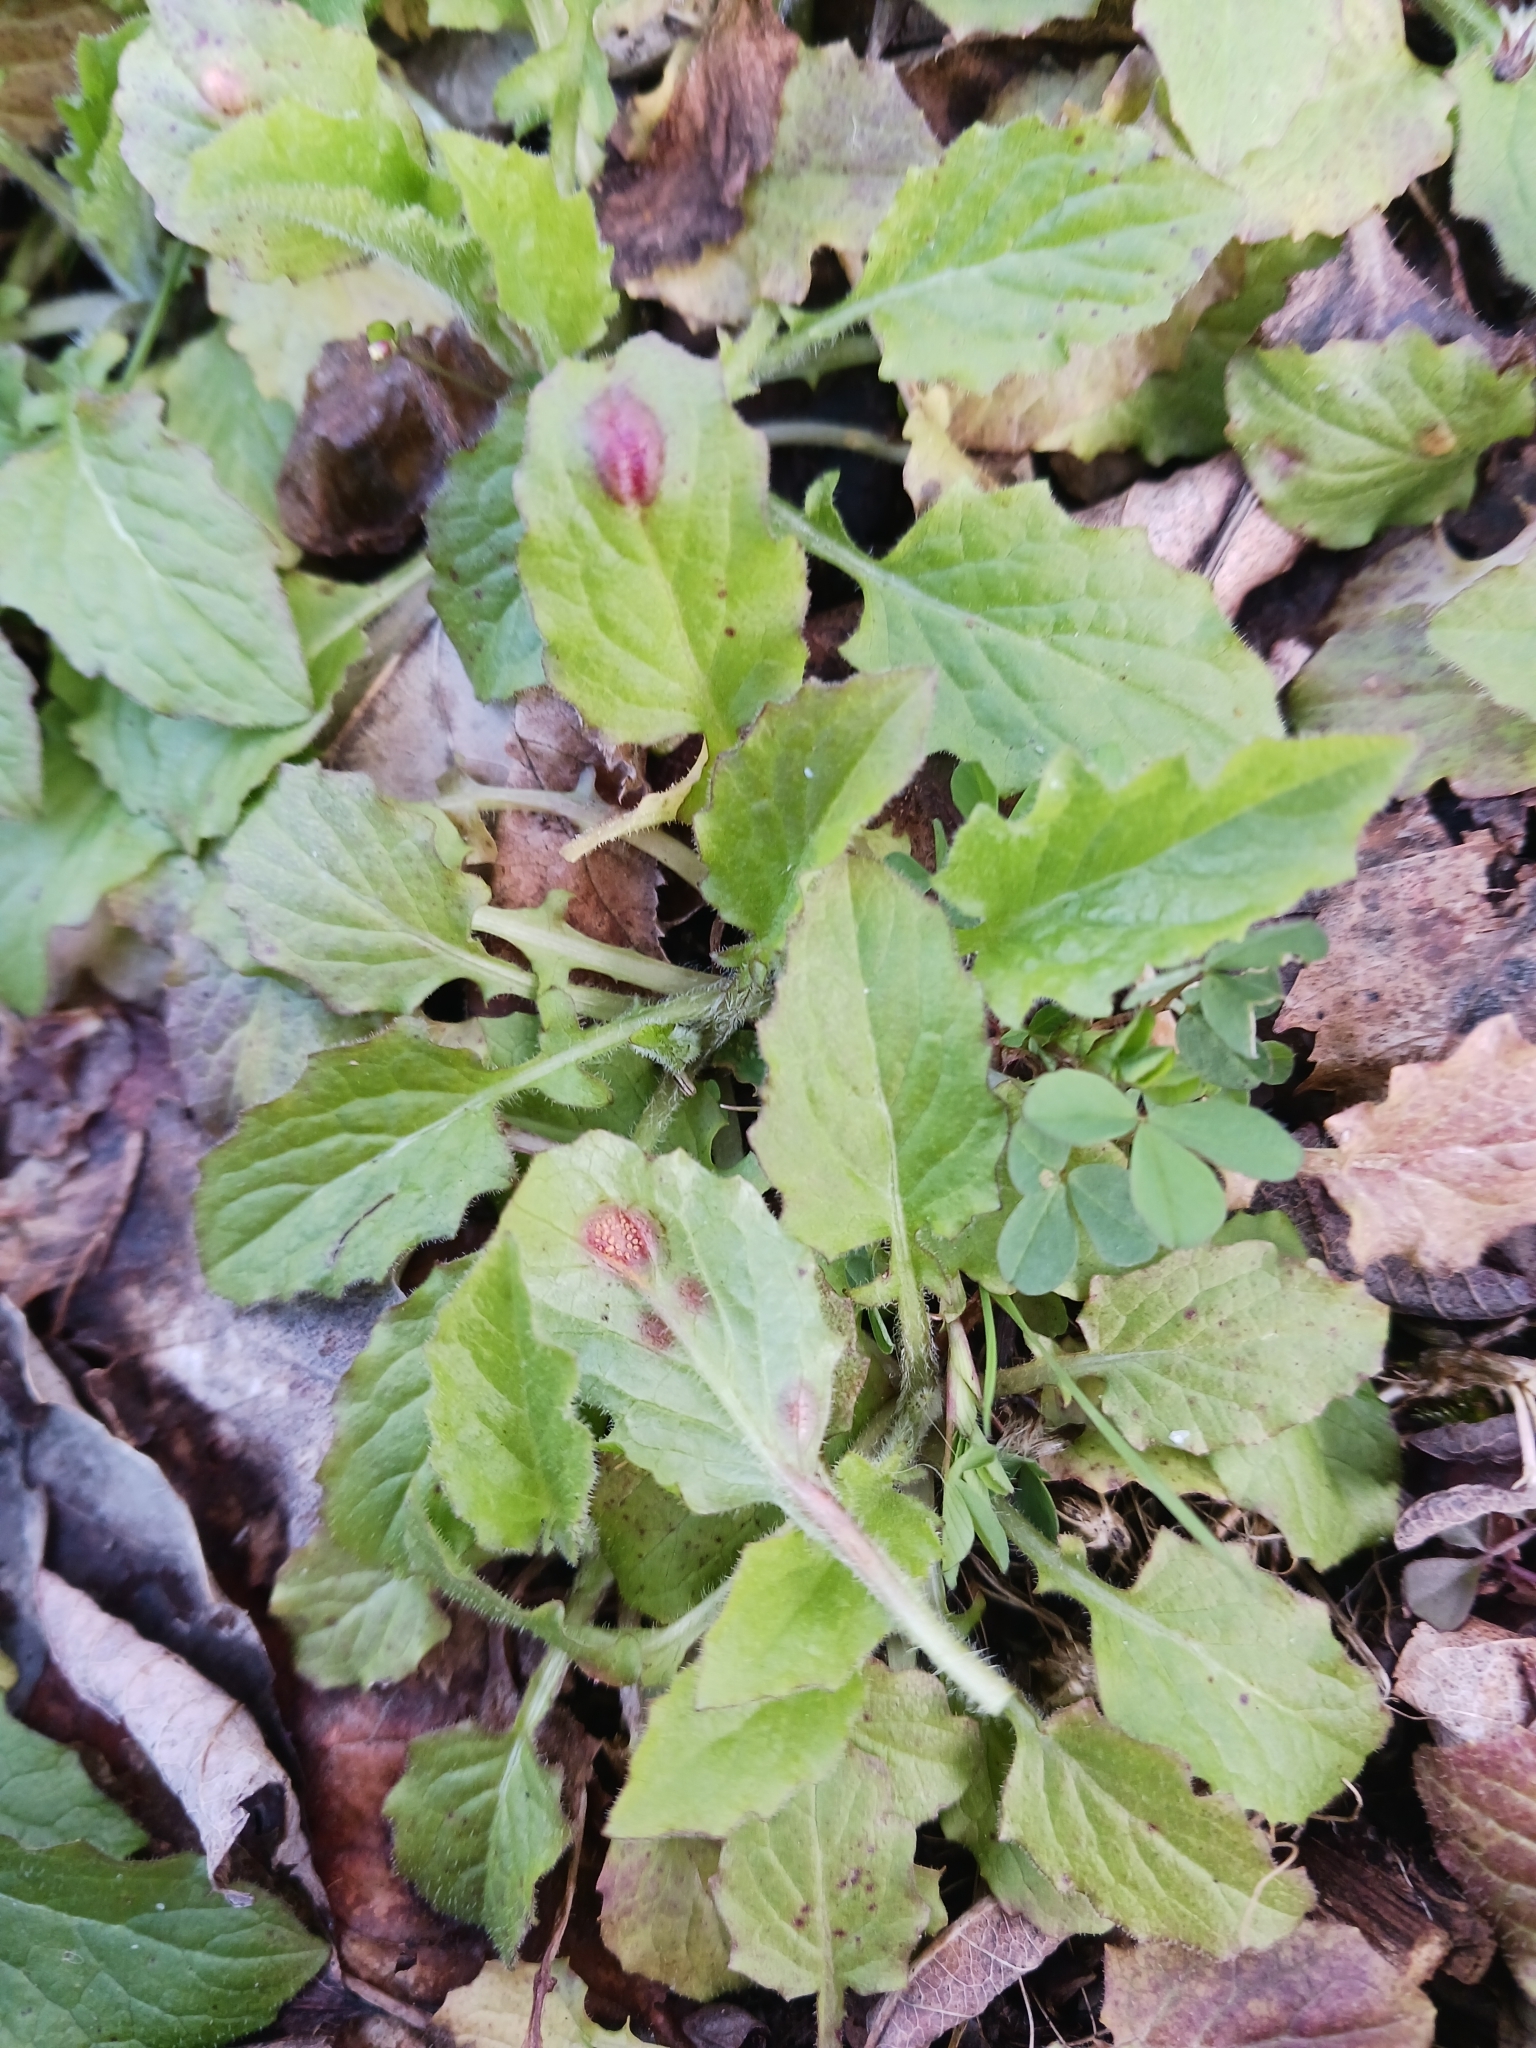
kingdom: Fungi
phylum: Basidiomycota
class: Pucciniomycetes
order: Pucciniales
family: Pucciniaceae
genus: Puccinia
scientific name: Puccinia lapsanae
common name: Nipplewort rust
